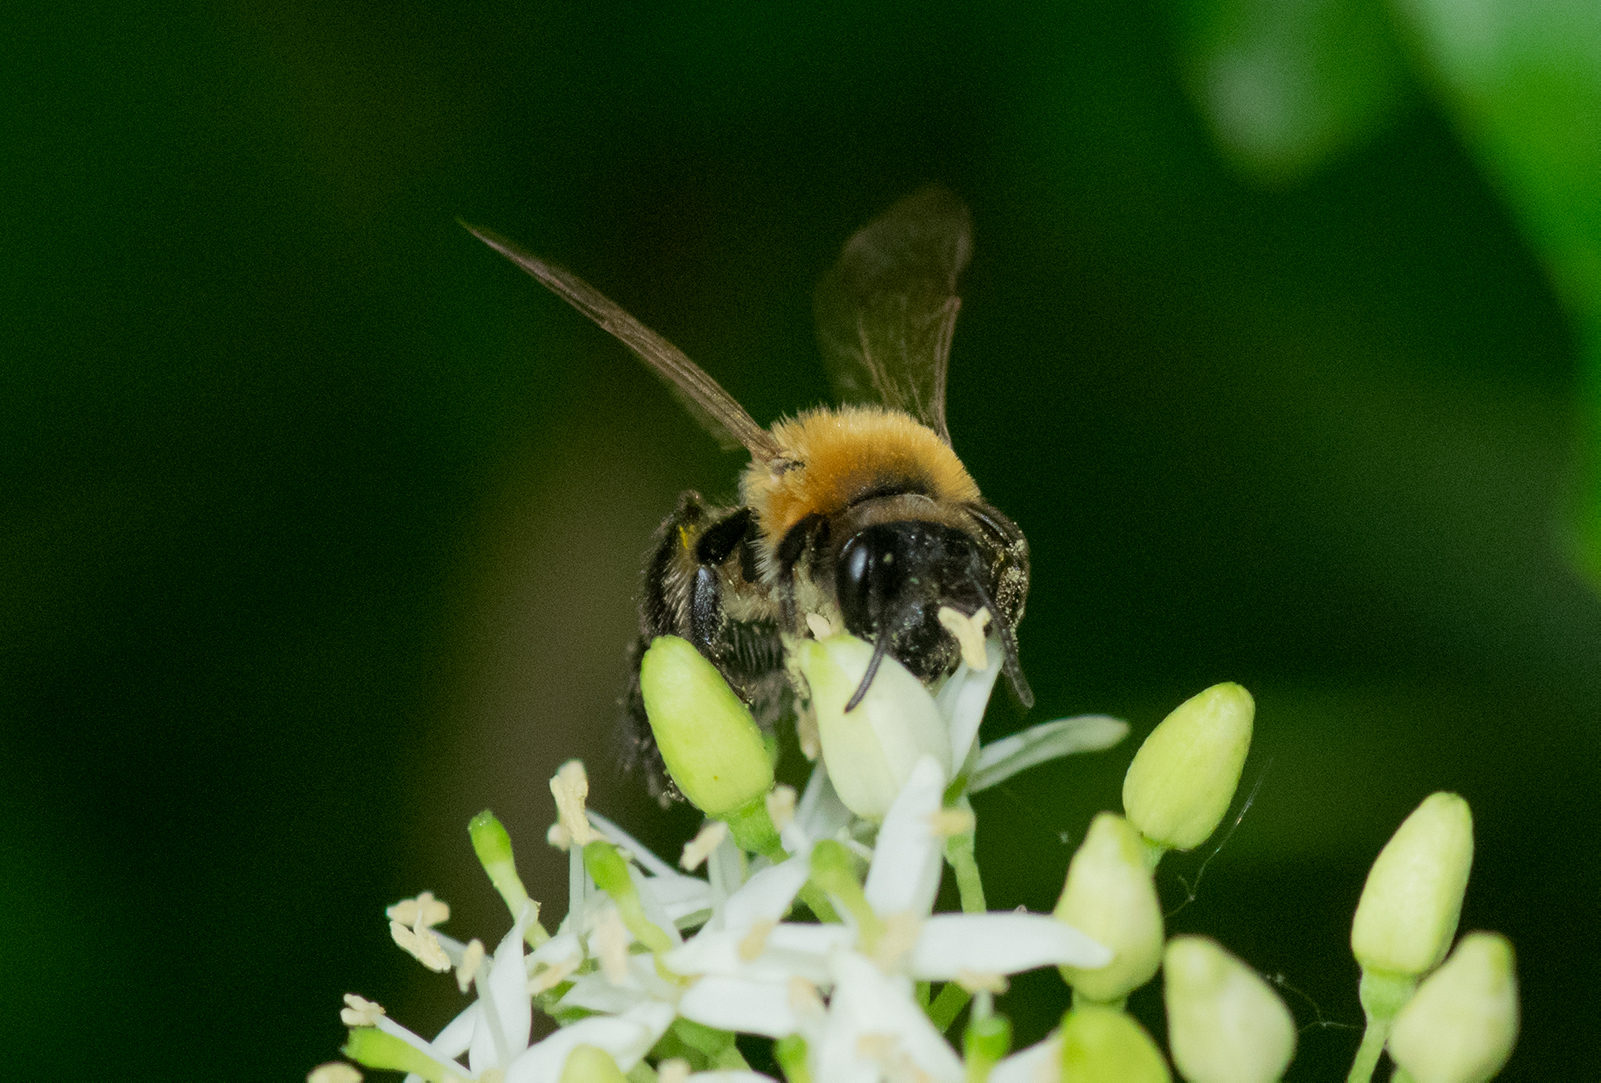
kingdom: Animalia
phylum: Arthropoda
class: Insecta
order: Hymenoptera
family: Andrenidae
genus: Andrena
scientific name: Andrena nitida
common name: Grey-patched mining bee
